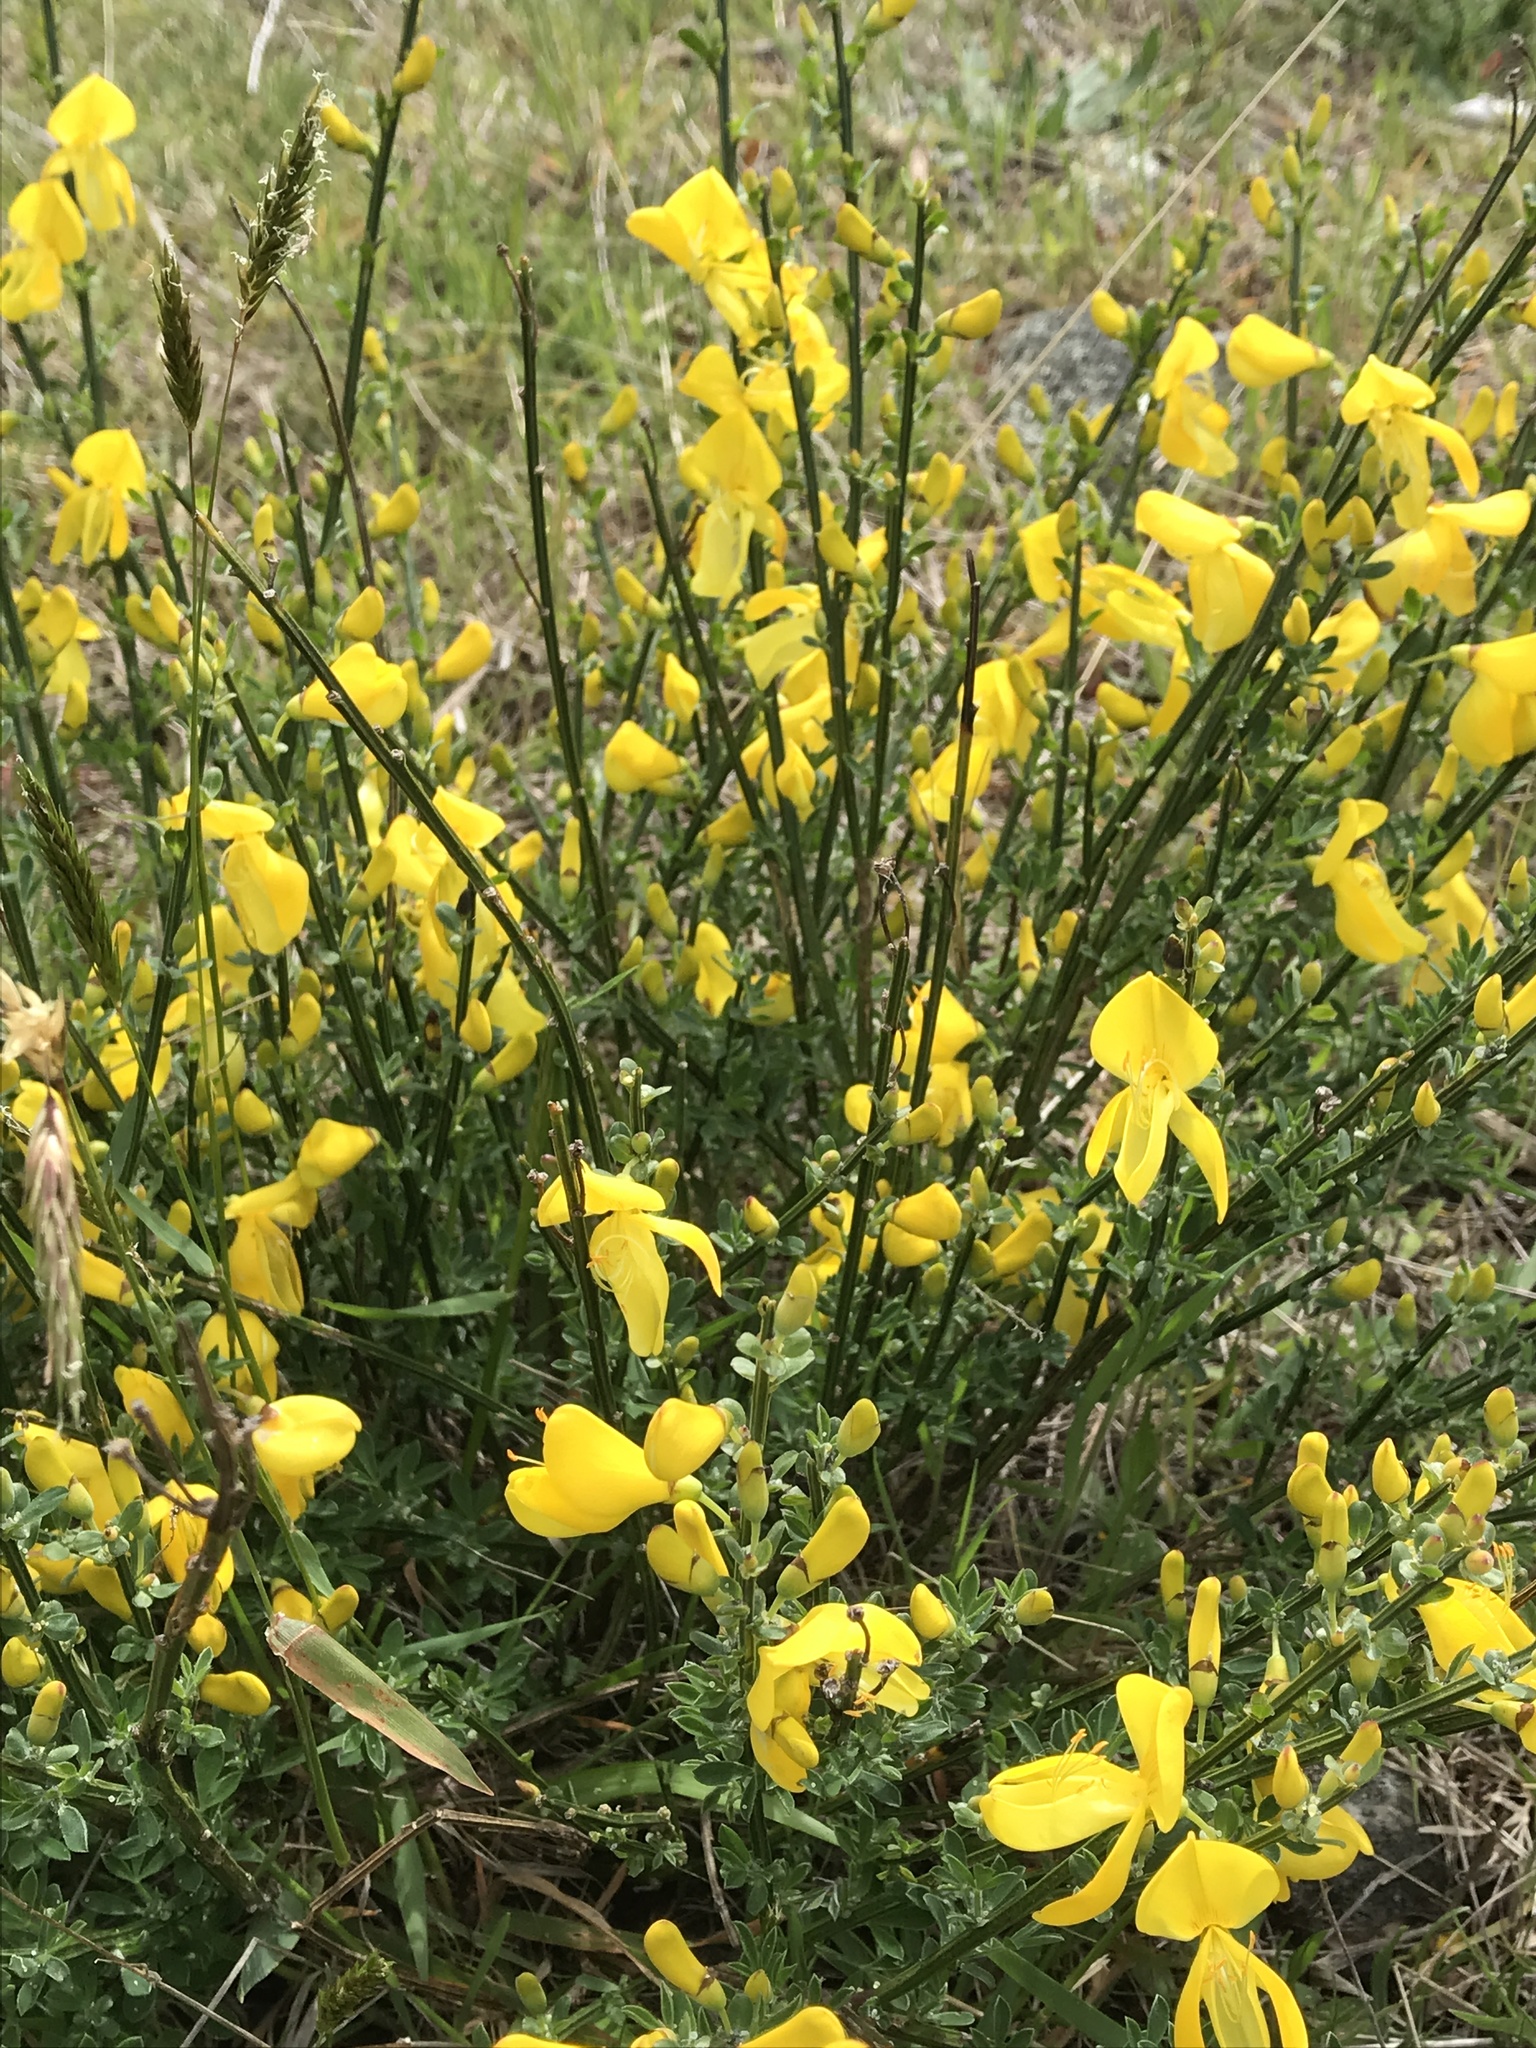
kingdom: Plantae
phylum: Tracheophyta
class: Magnoliopsida
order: Fabales
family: Fabaceae
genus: Cytisus
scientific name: Cytisus scoparius
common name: Scotch broom
